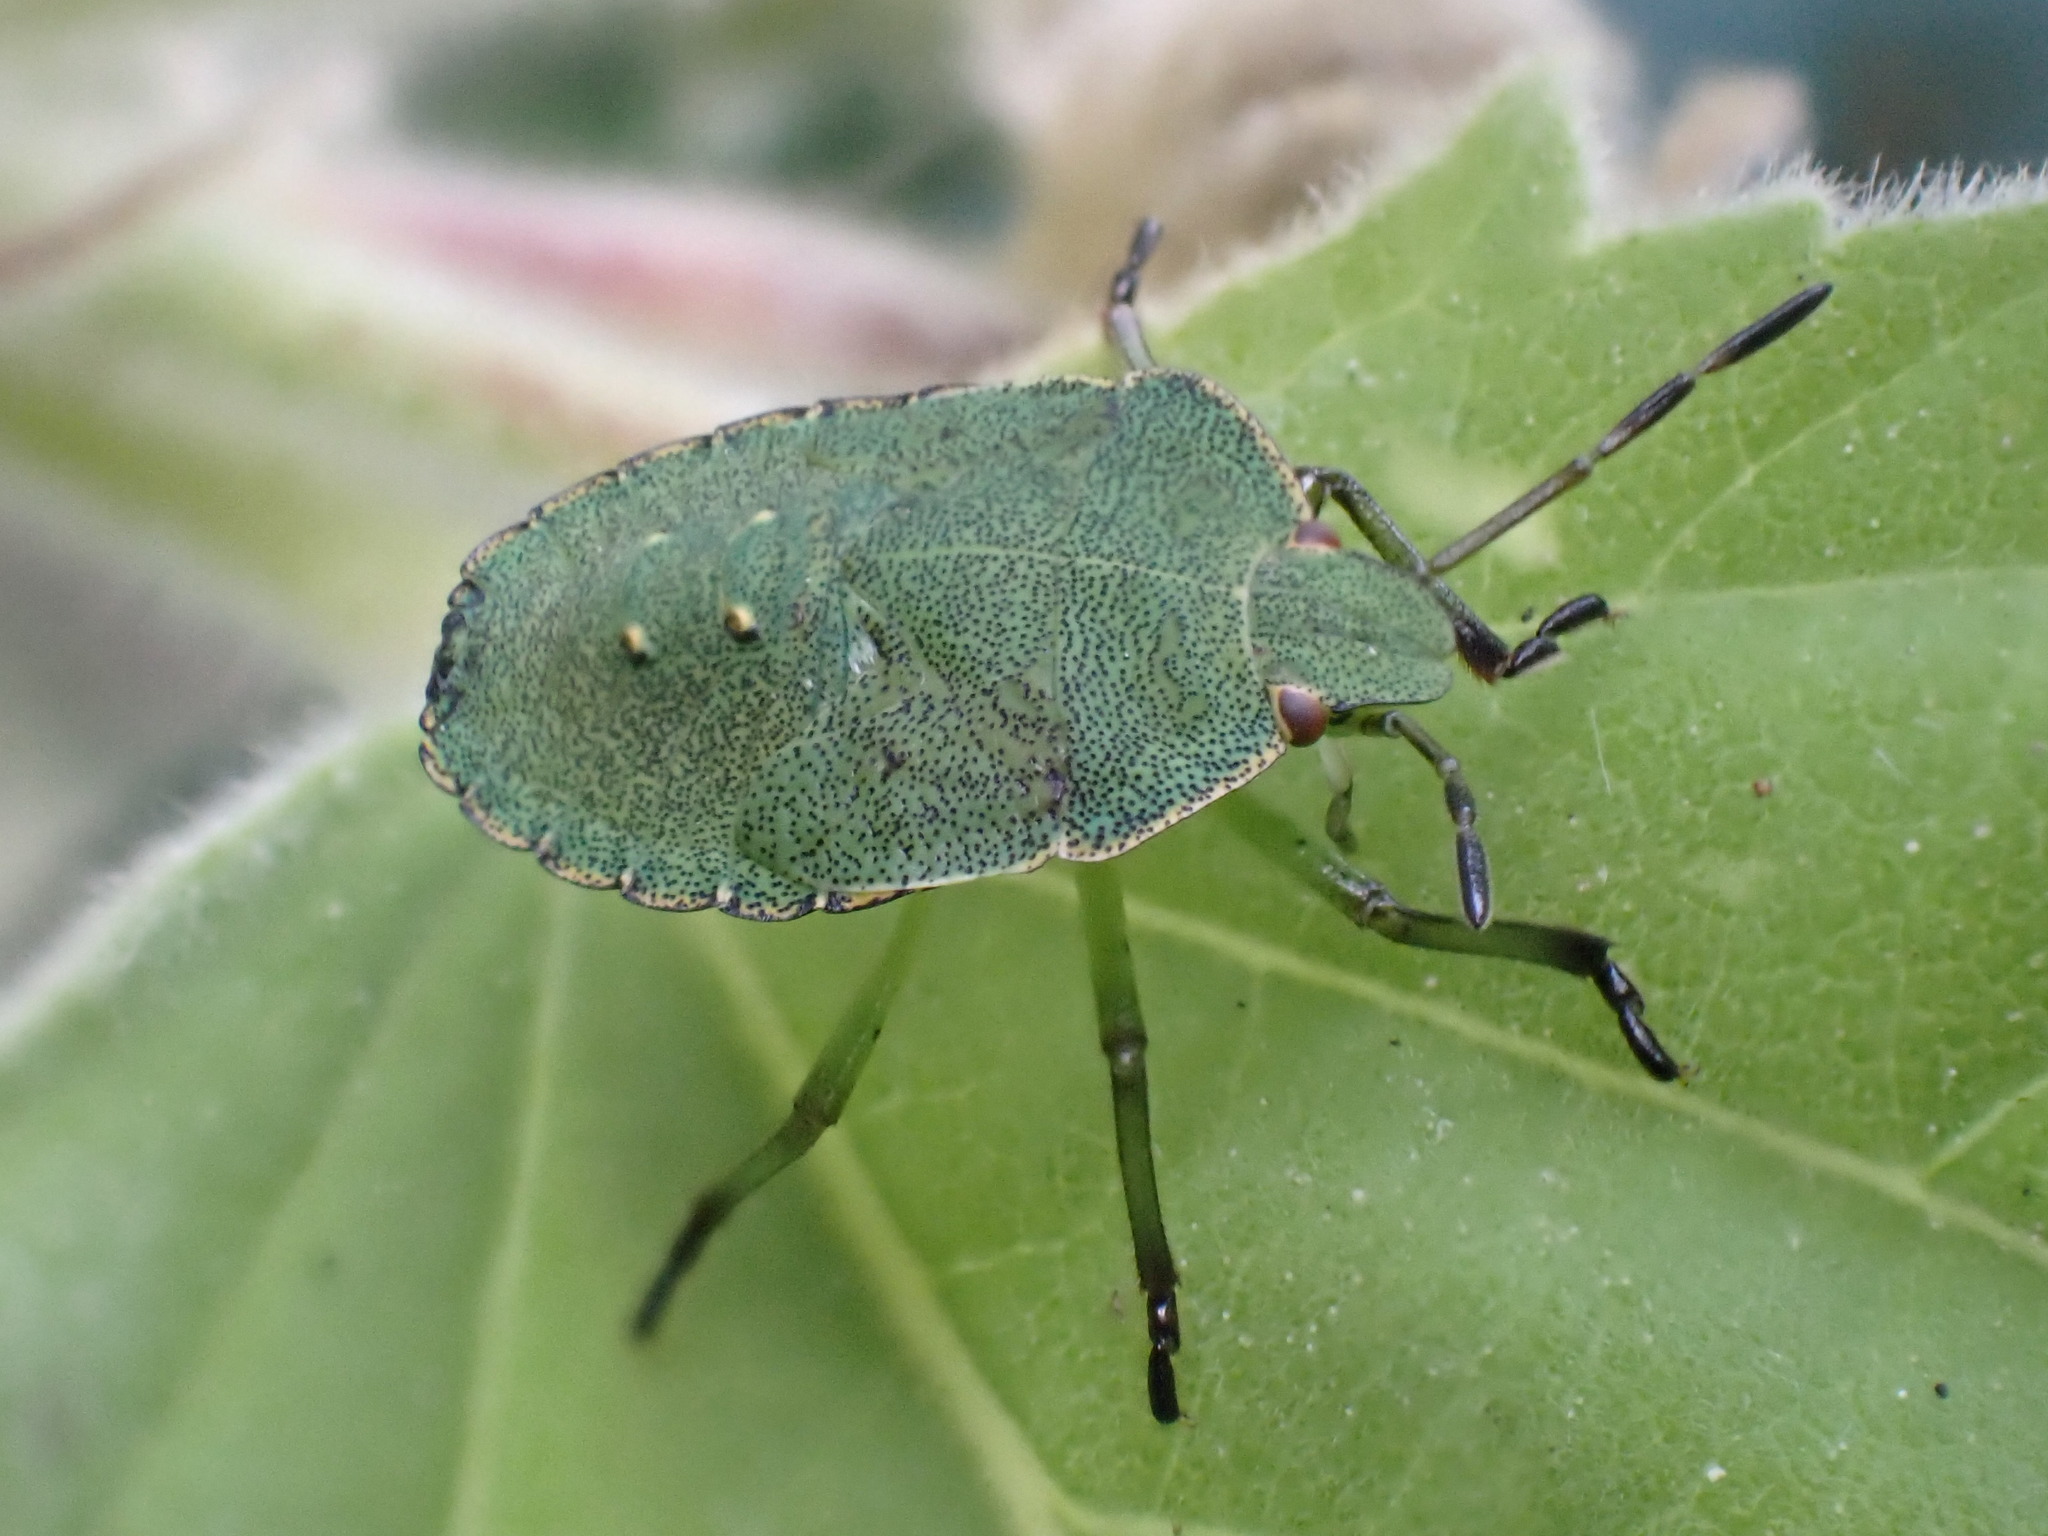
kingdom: Animalia
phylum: Arthropoda
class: Insecta
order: Hemiptera
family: Pentatomidae
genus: Palomena
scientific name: Palomena prasina
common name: Green shieldbug
